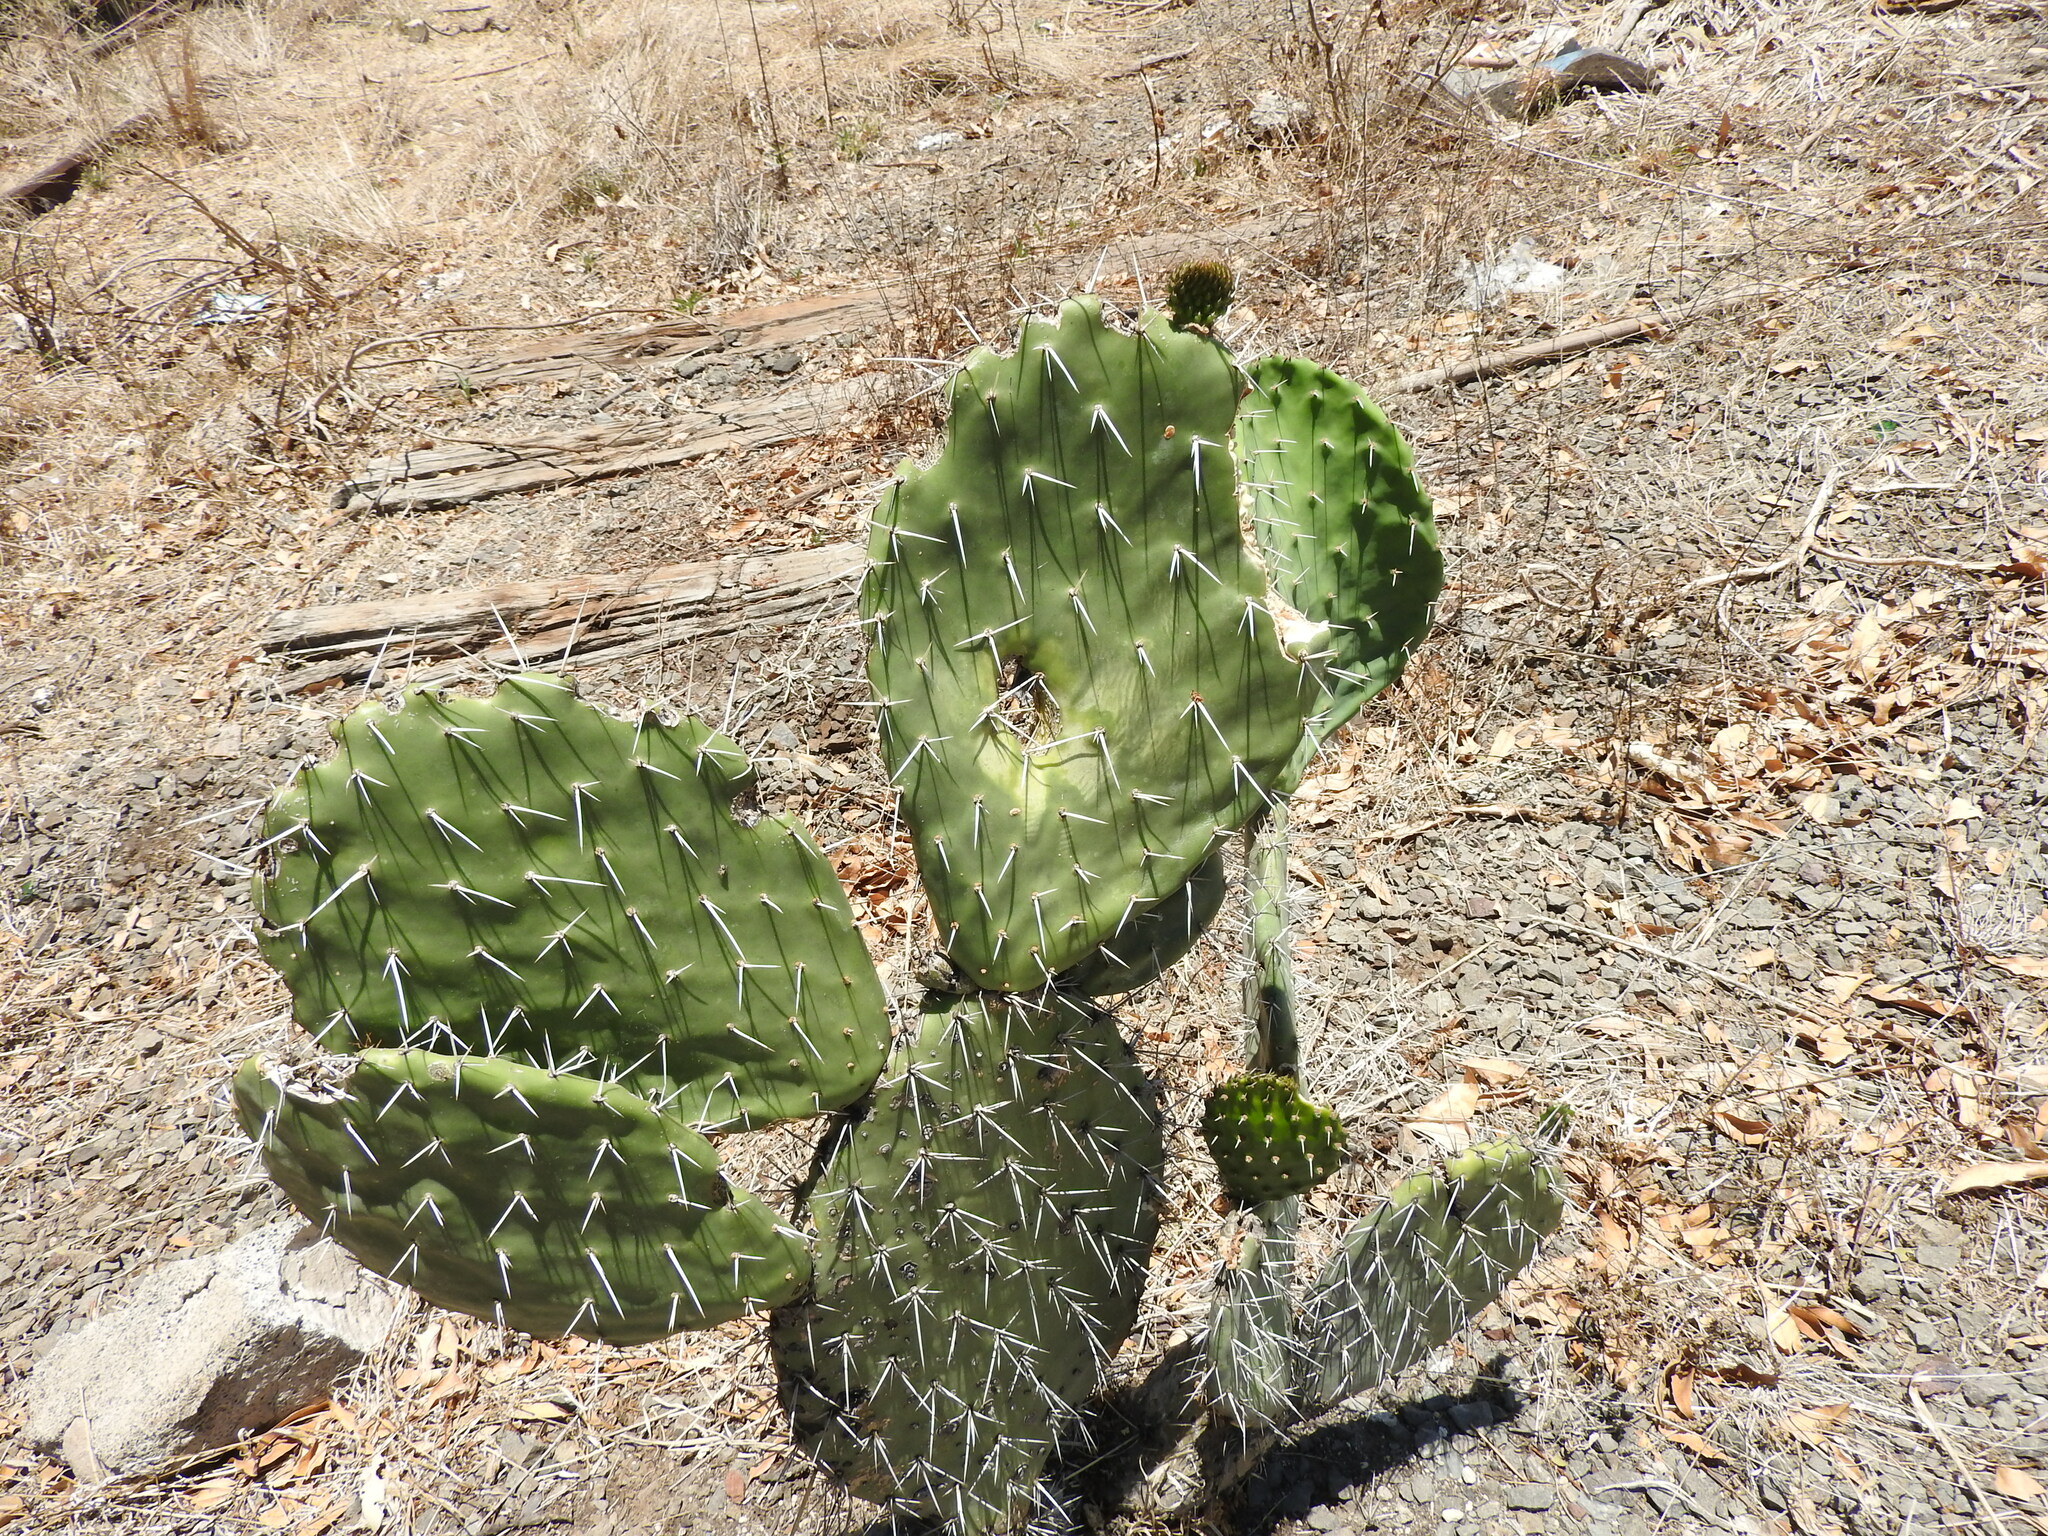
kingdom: Plantae
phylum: Tracheophyta
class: Magnoliopsida
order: Caryophyllales
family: Cactaceae
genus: Opuntia
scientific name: Opuntia ficus-indica
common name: Barbary fig
